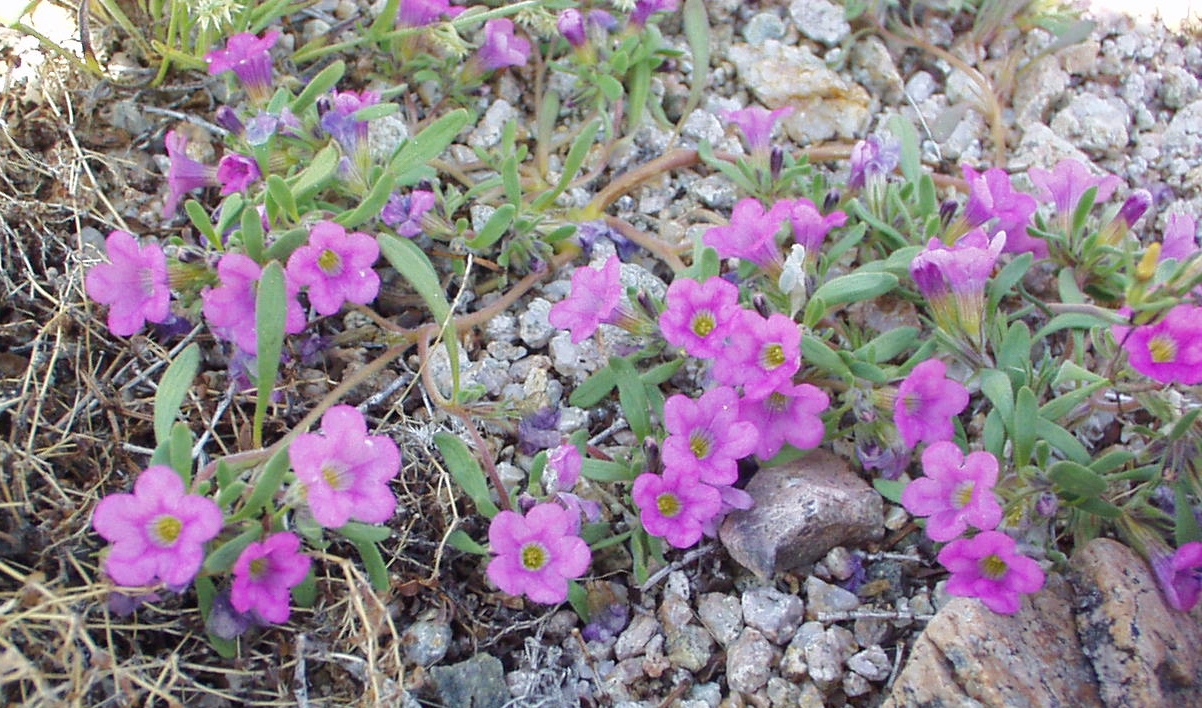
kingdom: Plantae
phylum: Tracheophyta
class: Magnoliopsida
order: Boraginales
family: Namaceae
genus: Nama
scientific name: Nama demissa
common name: Leafy nama
